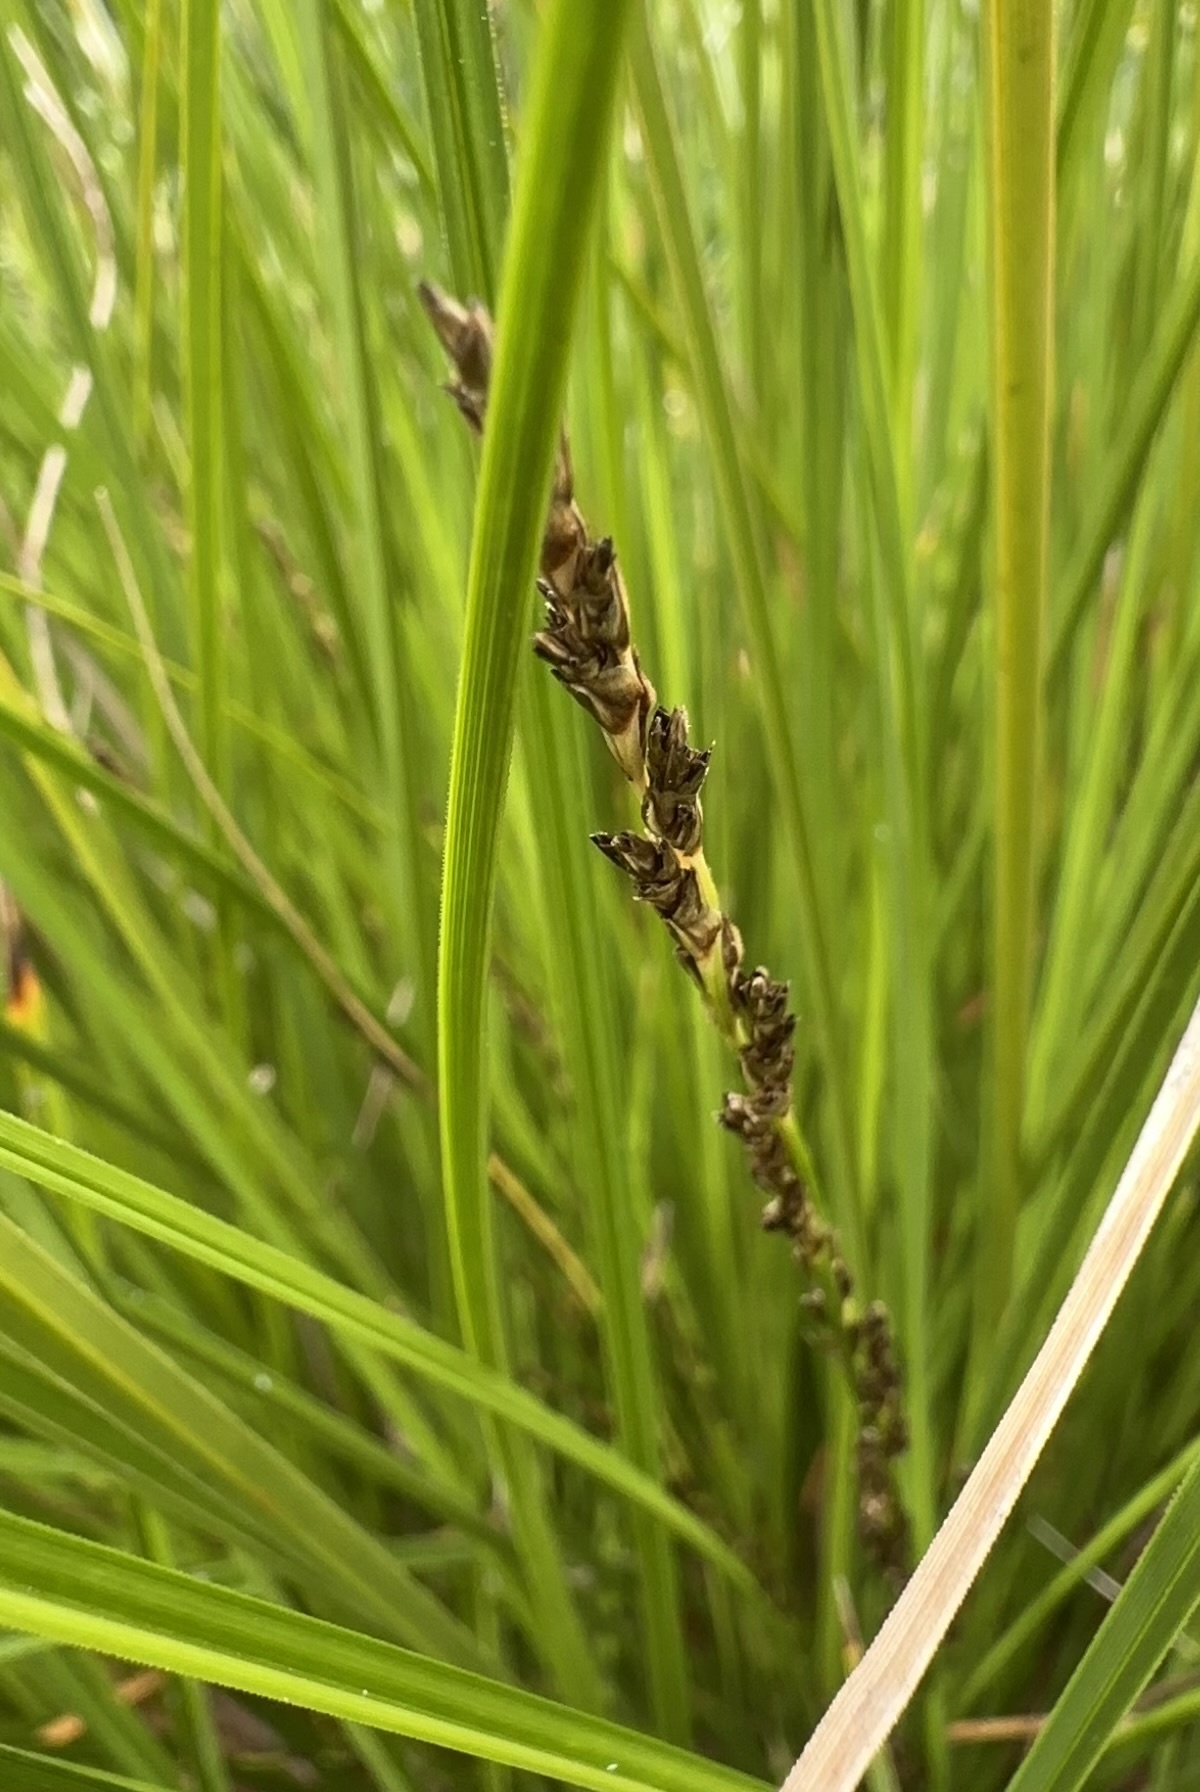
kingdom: Plantae
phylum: Tracheophyta
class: Liliopsida
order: Poales
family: Cyperaceae
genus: Carex
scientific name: Carex secta
